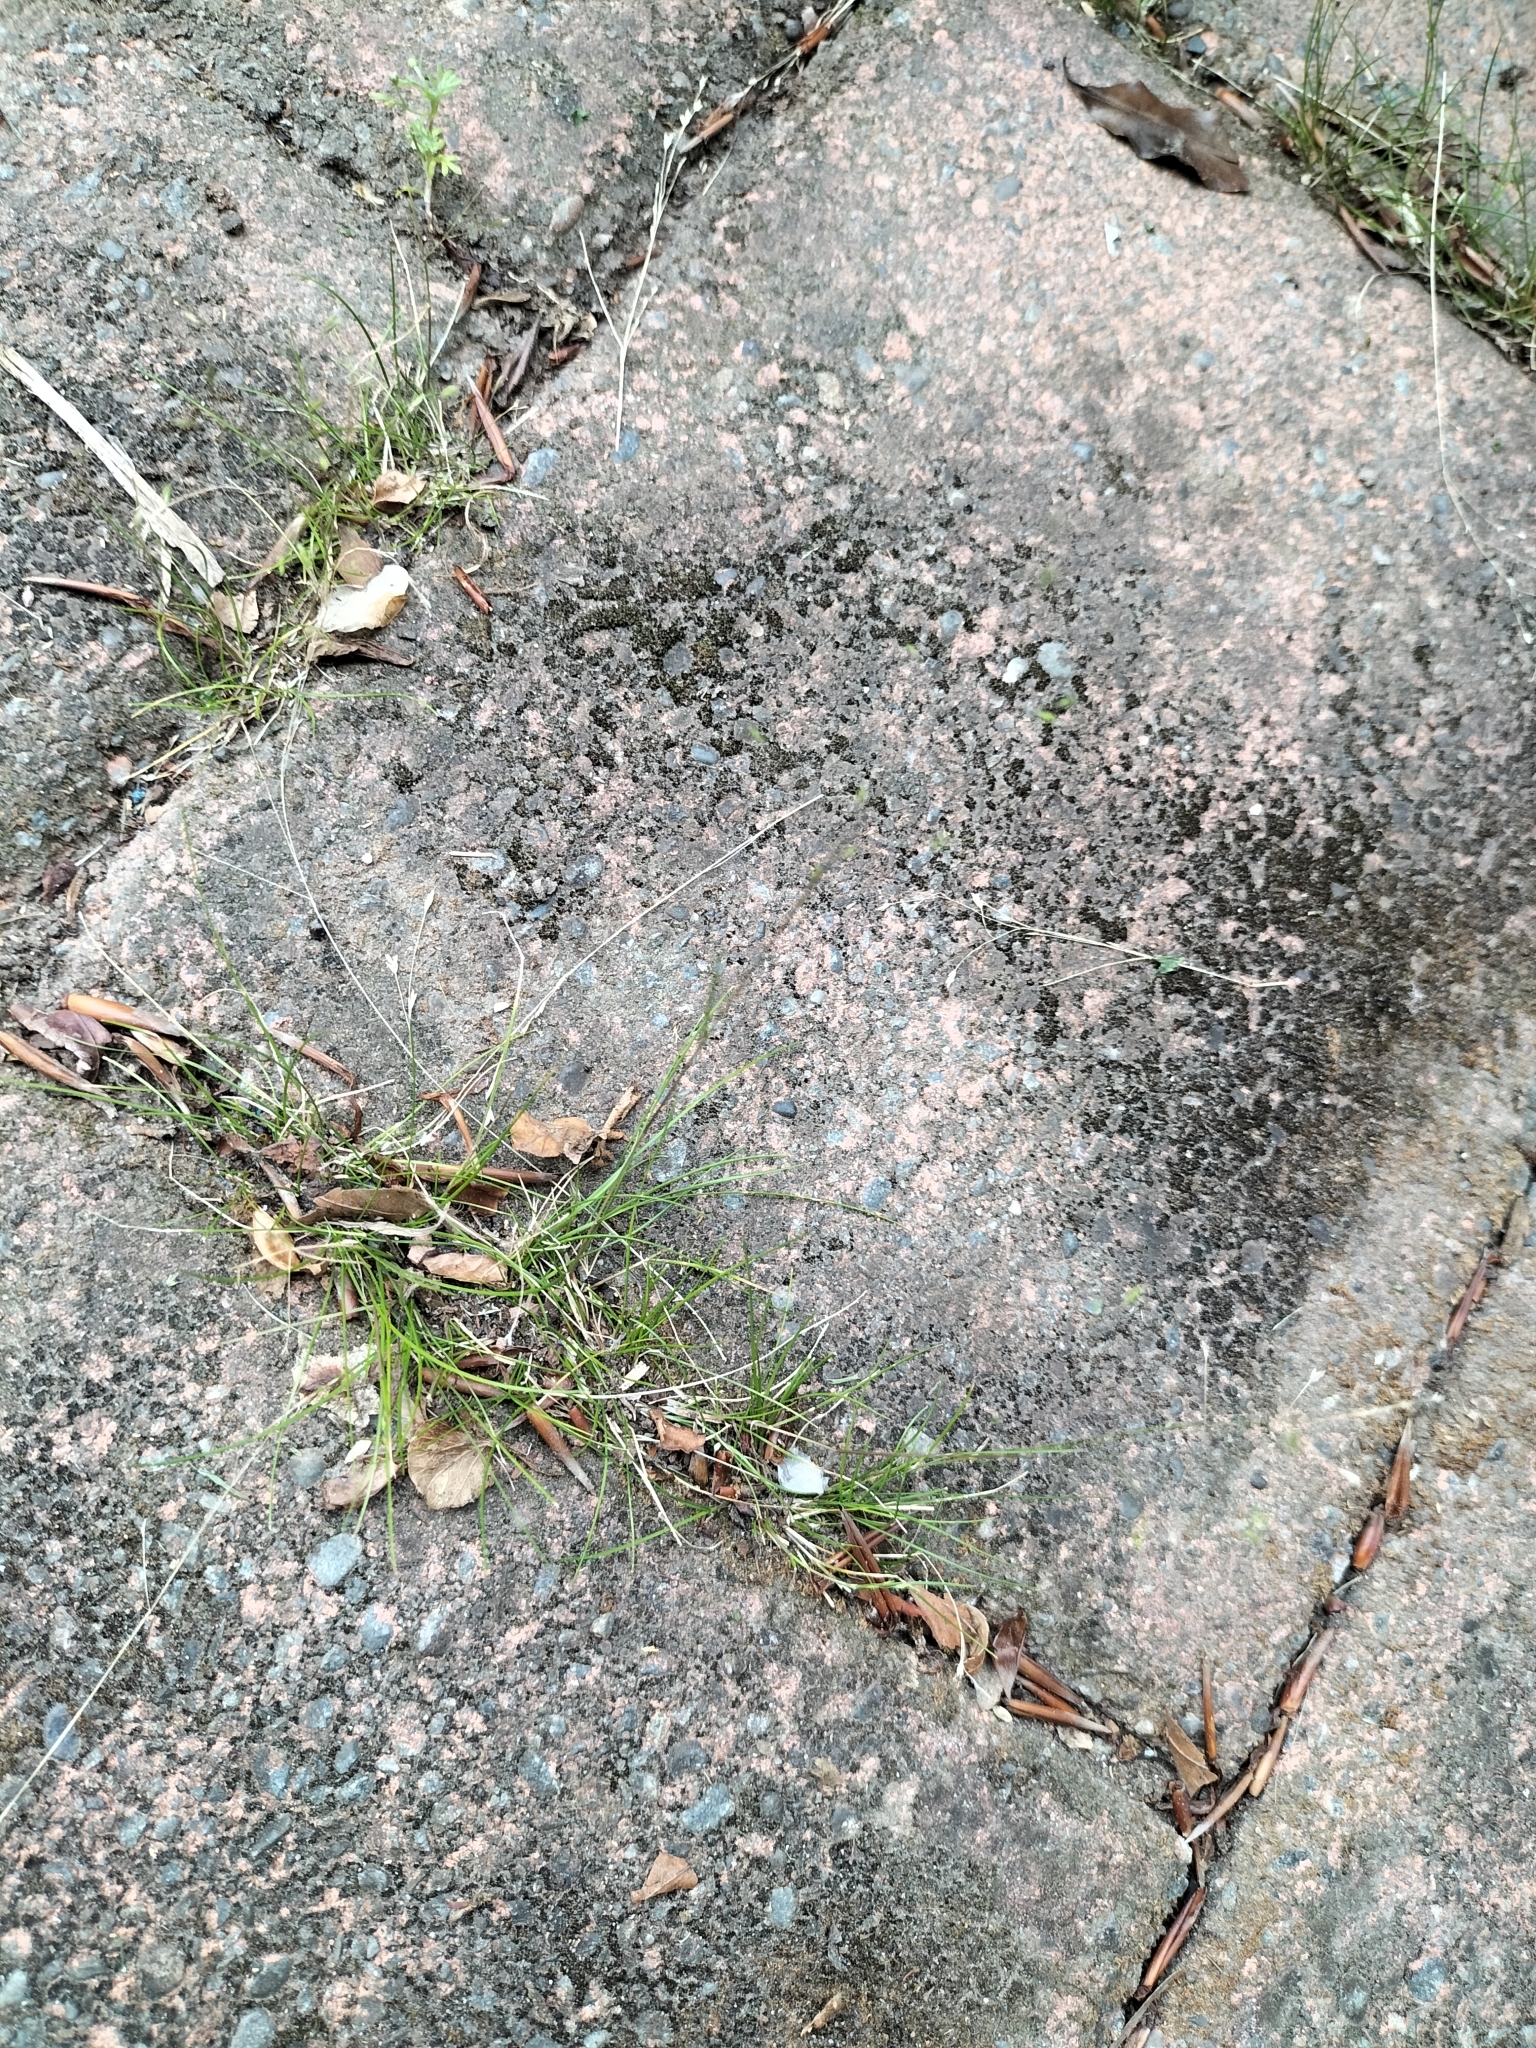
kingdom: Plantae
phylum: Tracheophyta
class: Liliopsida
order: Poales
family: Poaceae
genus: Poa
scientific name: Poa imbecilla
